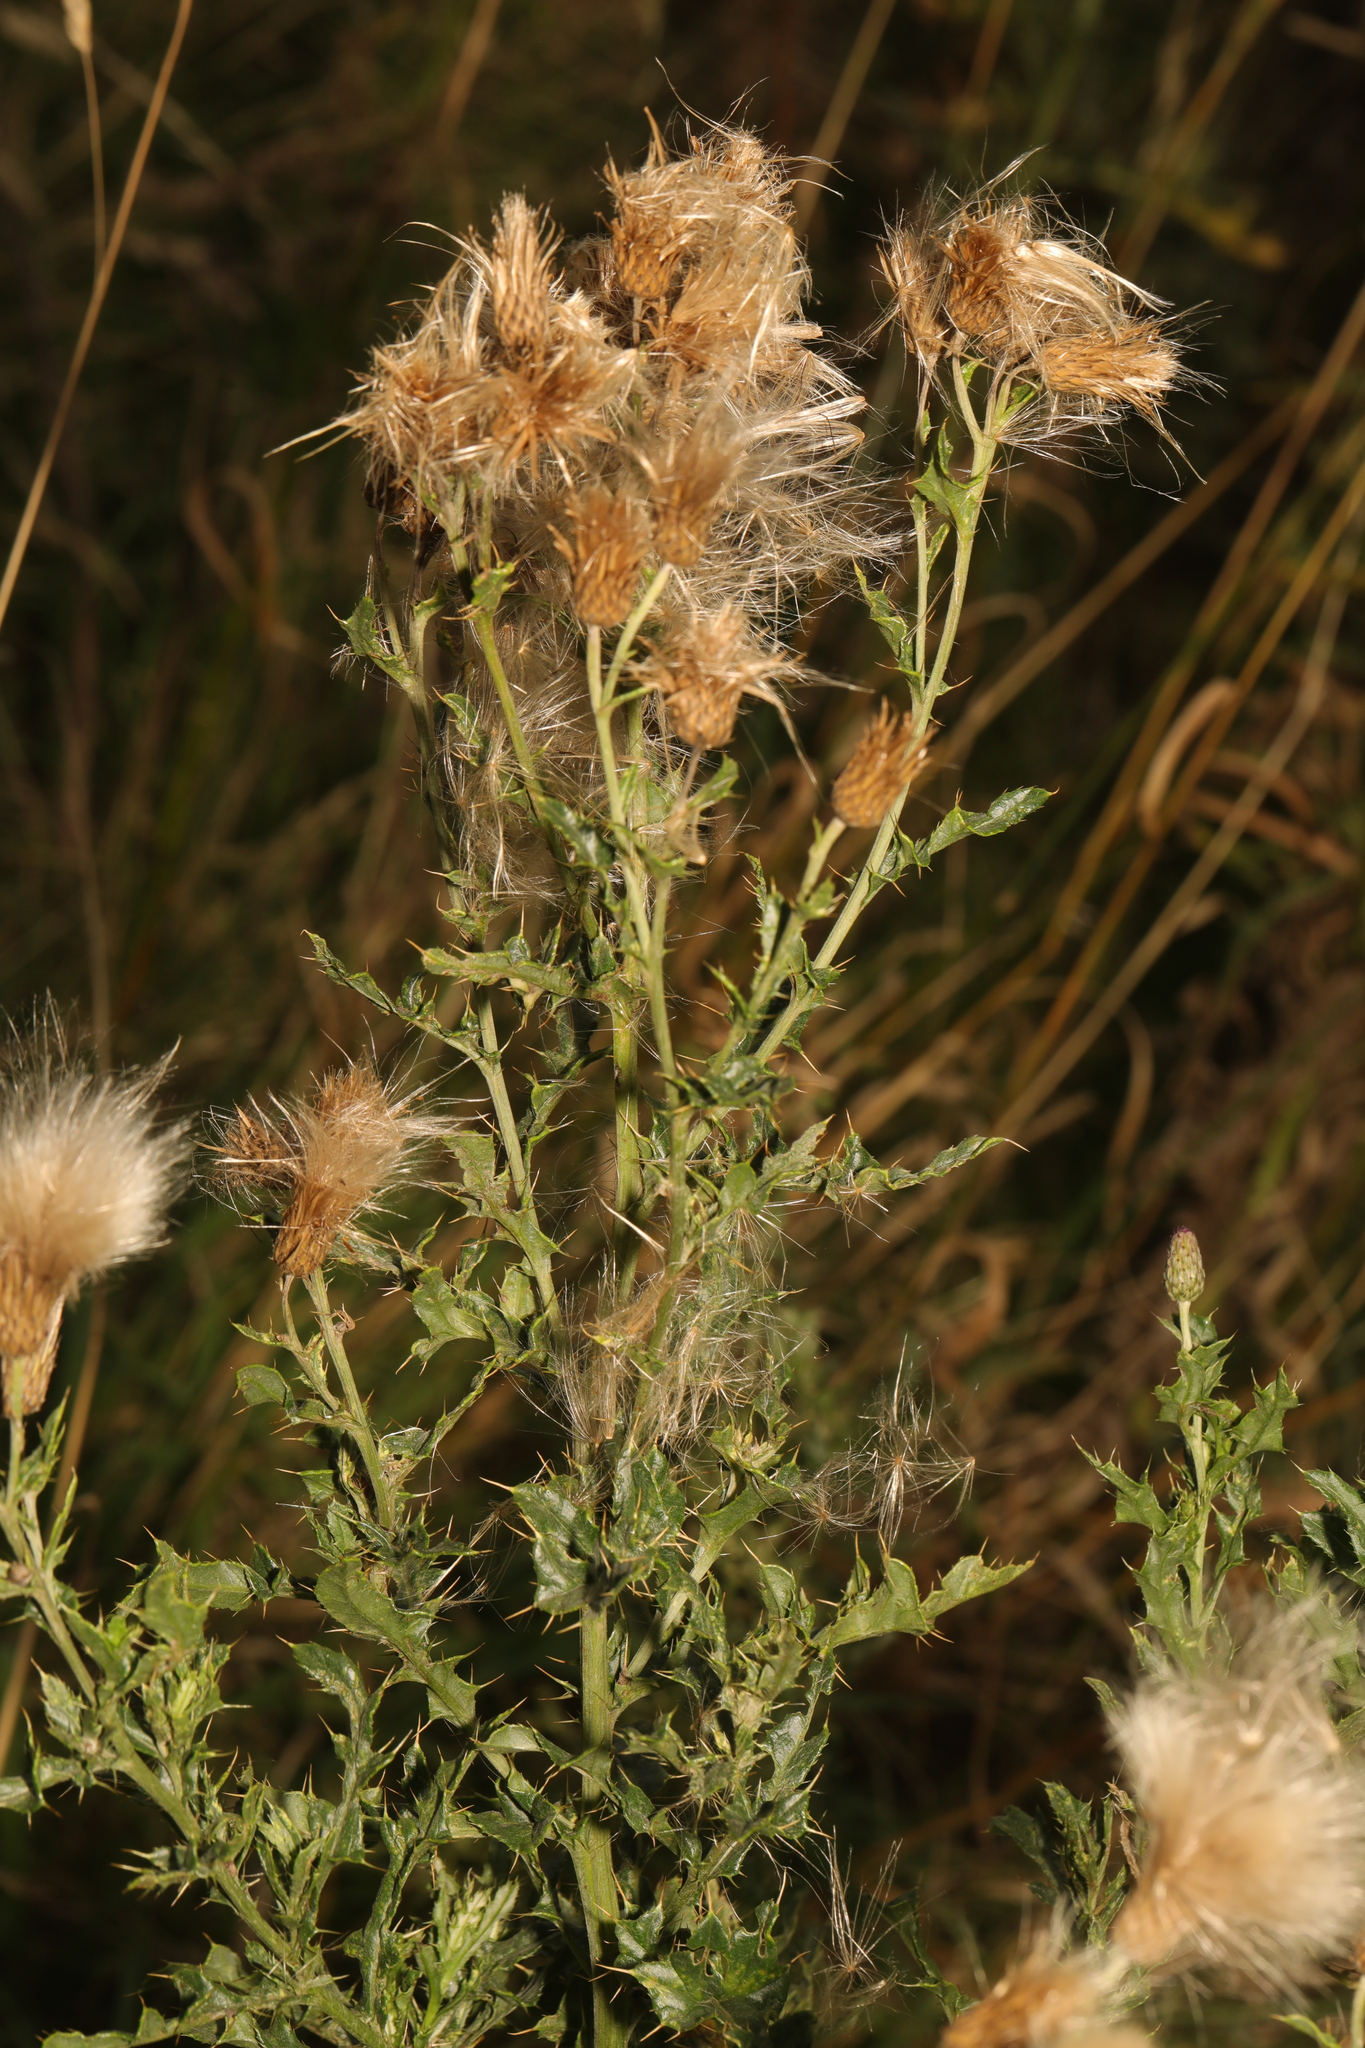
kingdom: Plantae
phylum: Tracheophyta
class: Magnoliopsida
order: Asterales
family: Asteraceae
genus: Cirsium
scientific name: Cirsium arvense
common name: Creeping thistle
